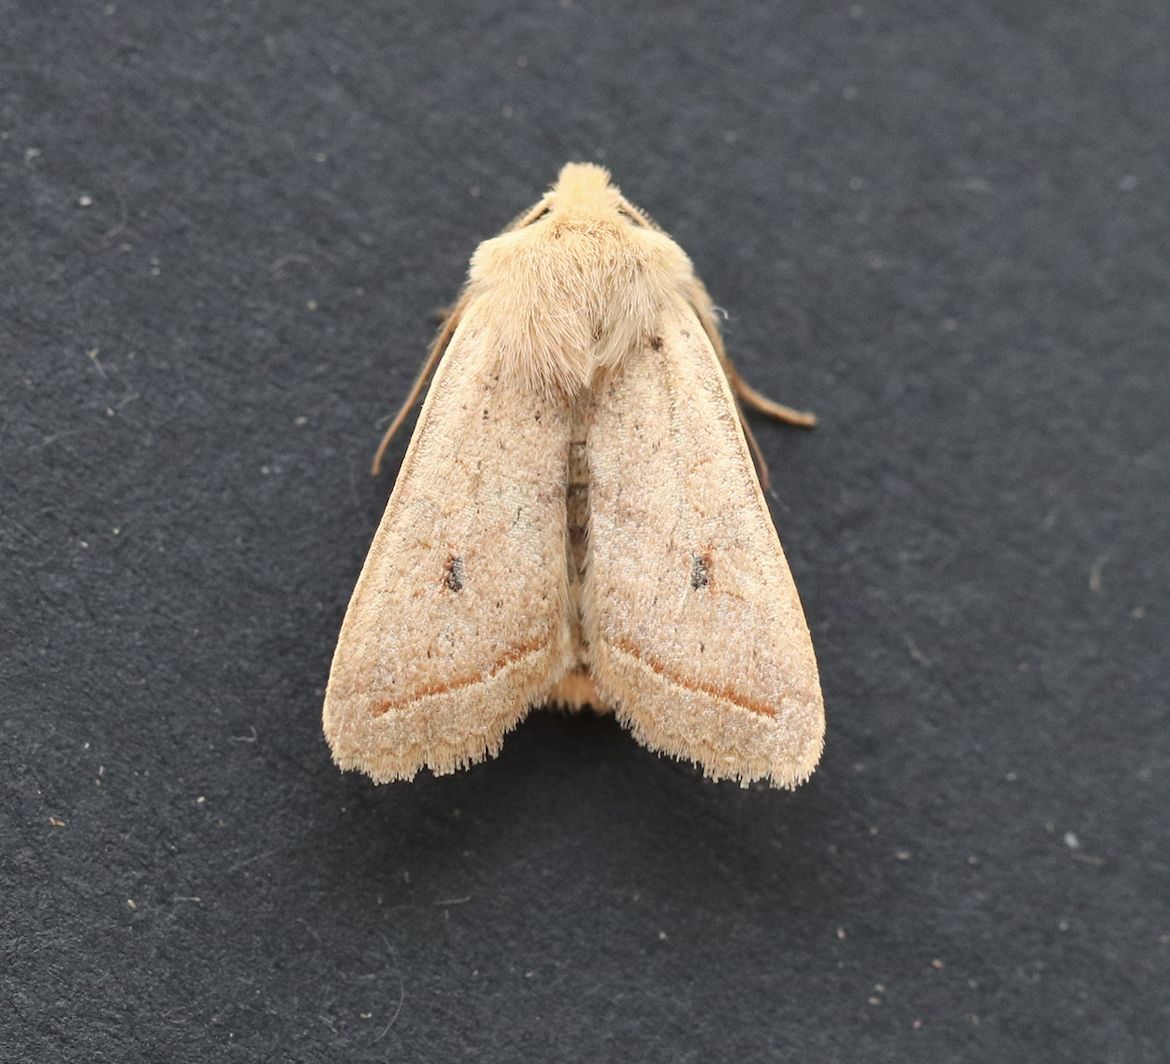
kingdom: Animalia
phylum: Arthropoda
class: Insecta
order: Lepidoptera
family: Noctuidae
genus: Agrochola
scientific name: Agrochola macilenta
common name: Yellow-line quaker
